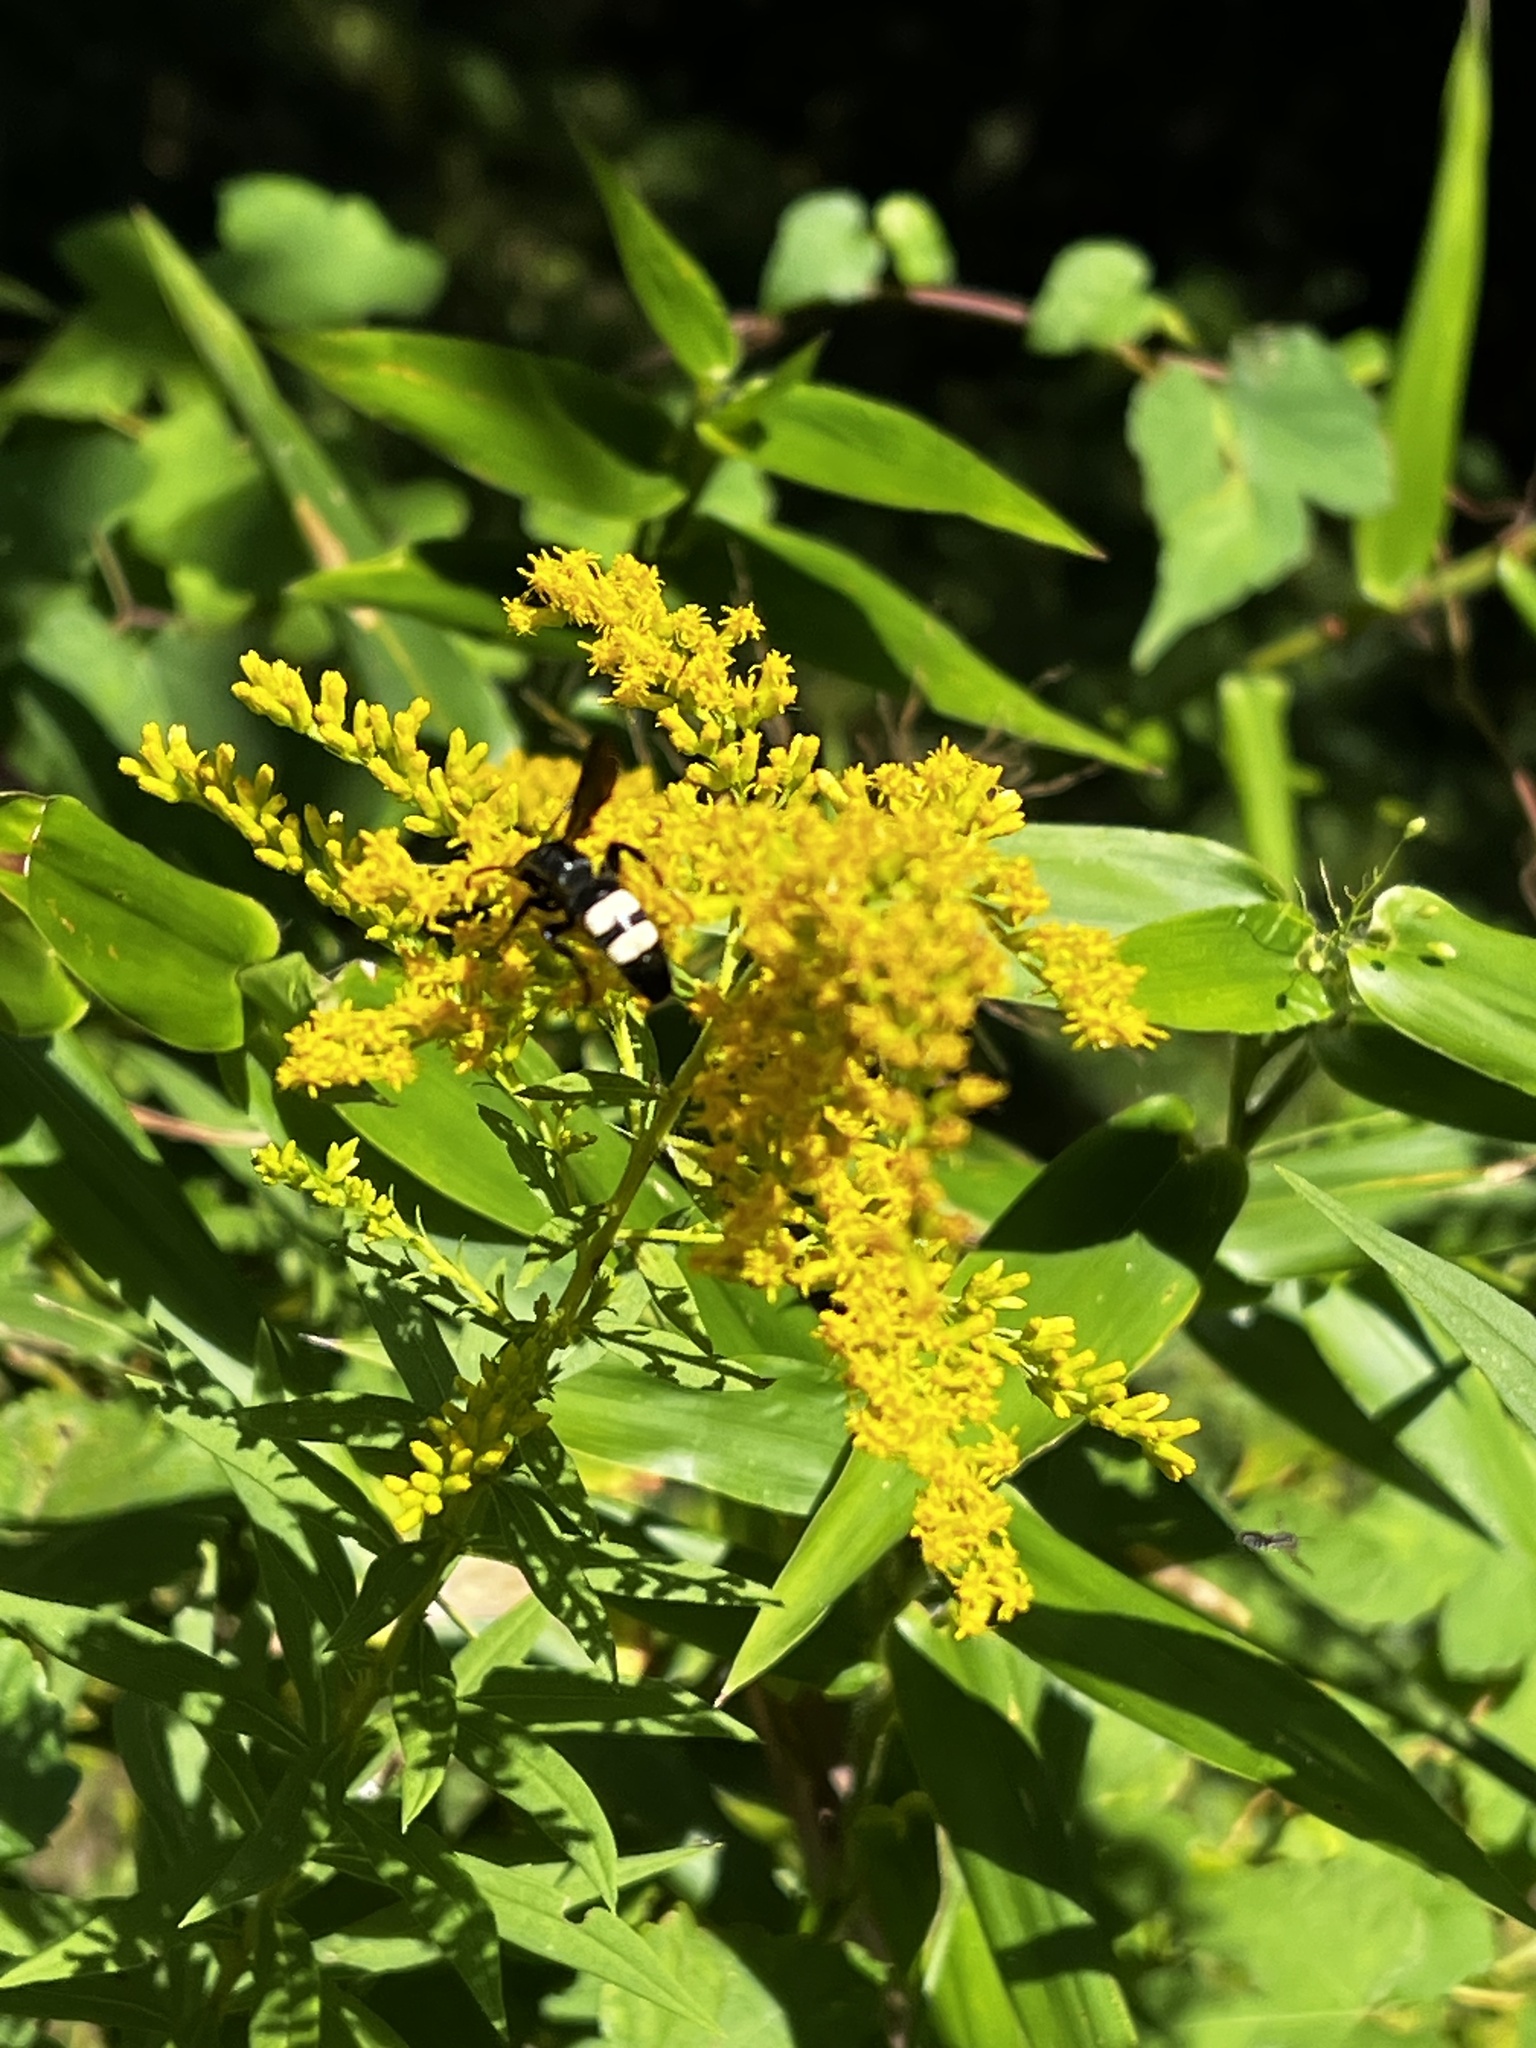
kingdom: Animalia
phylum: Arthropoda
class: Insecta
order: Hymenoptera
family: Scoliidae
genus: Scolia
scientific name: Scolia bicincta
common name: Double-banded scoliid wasp
